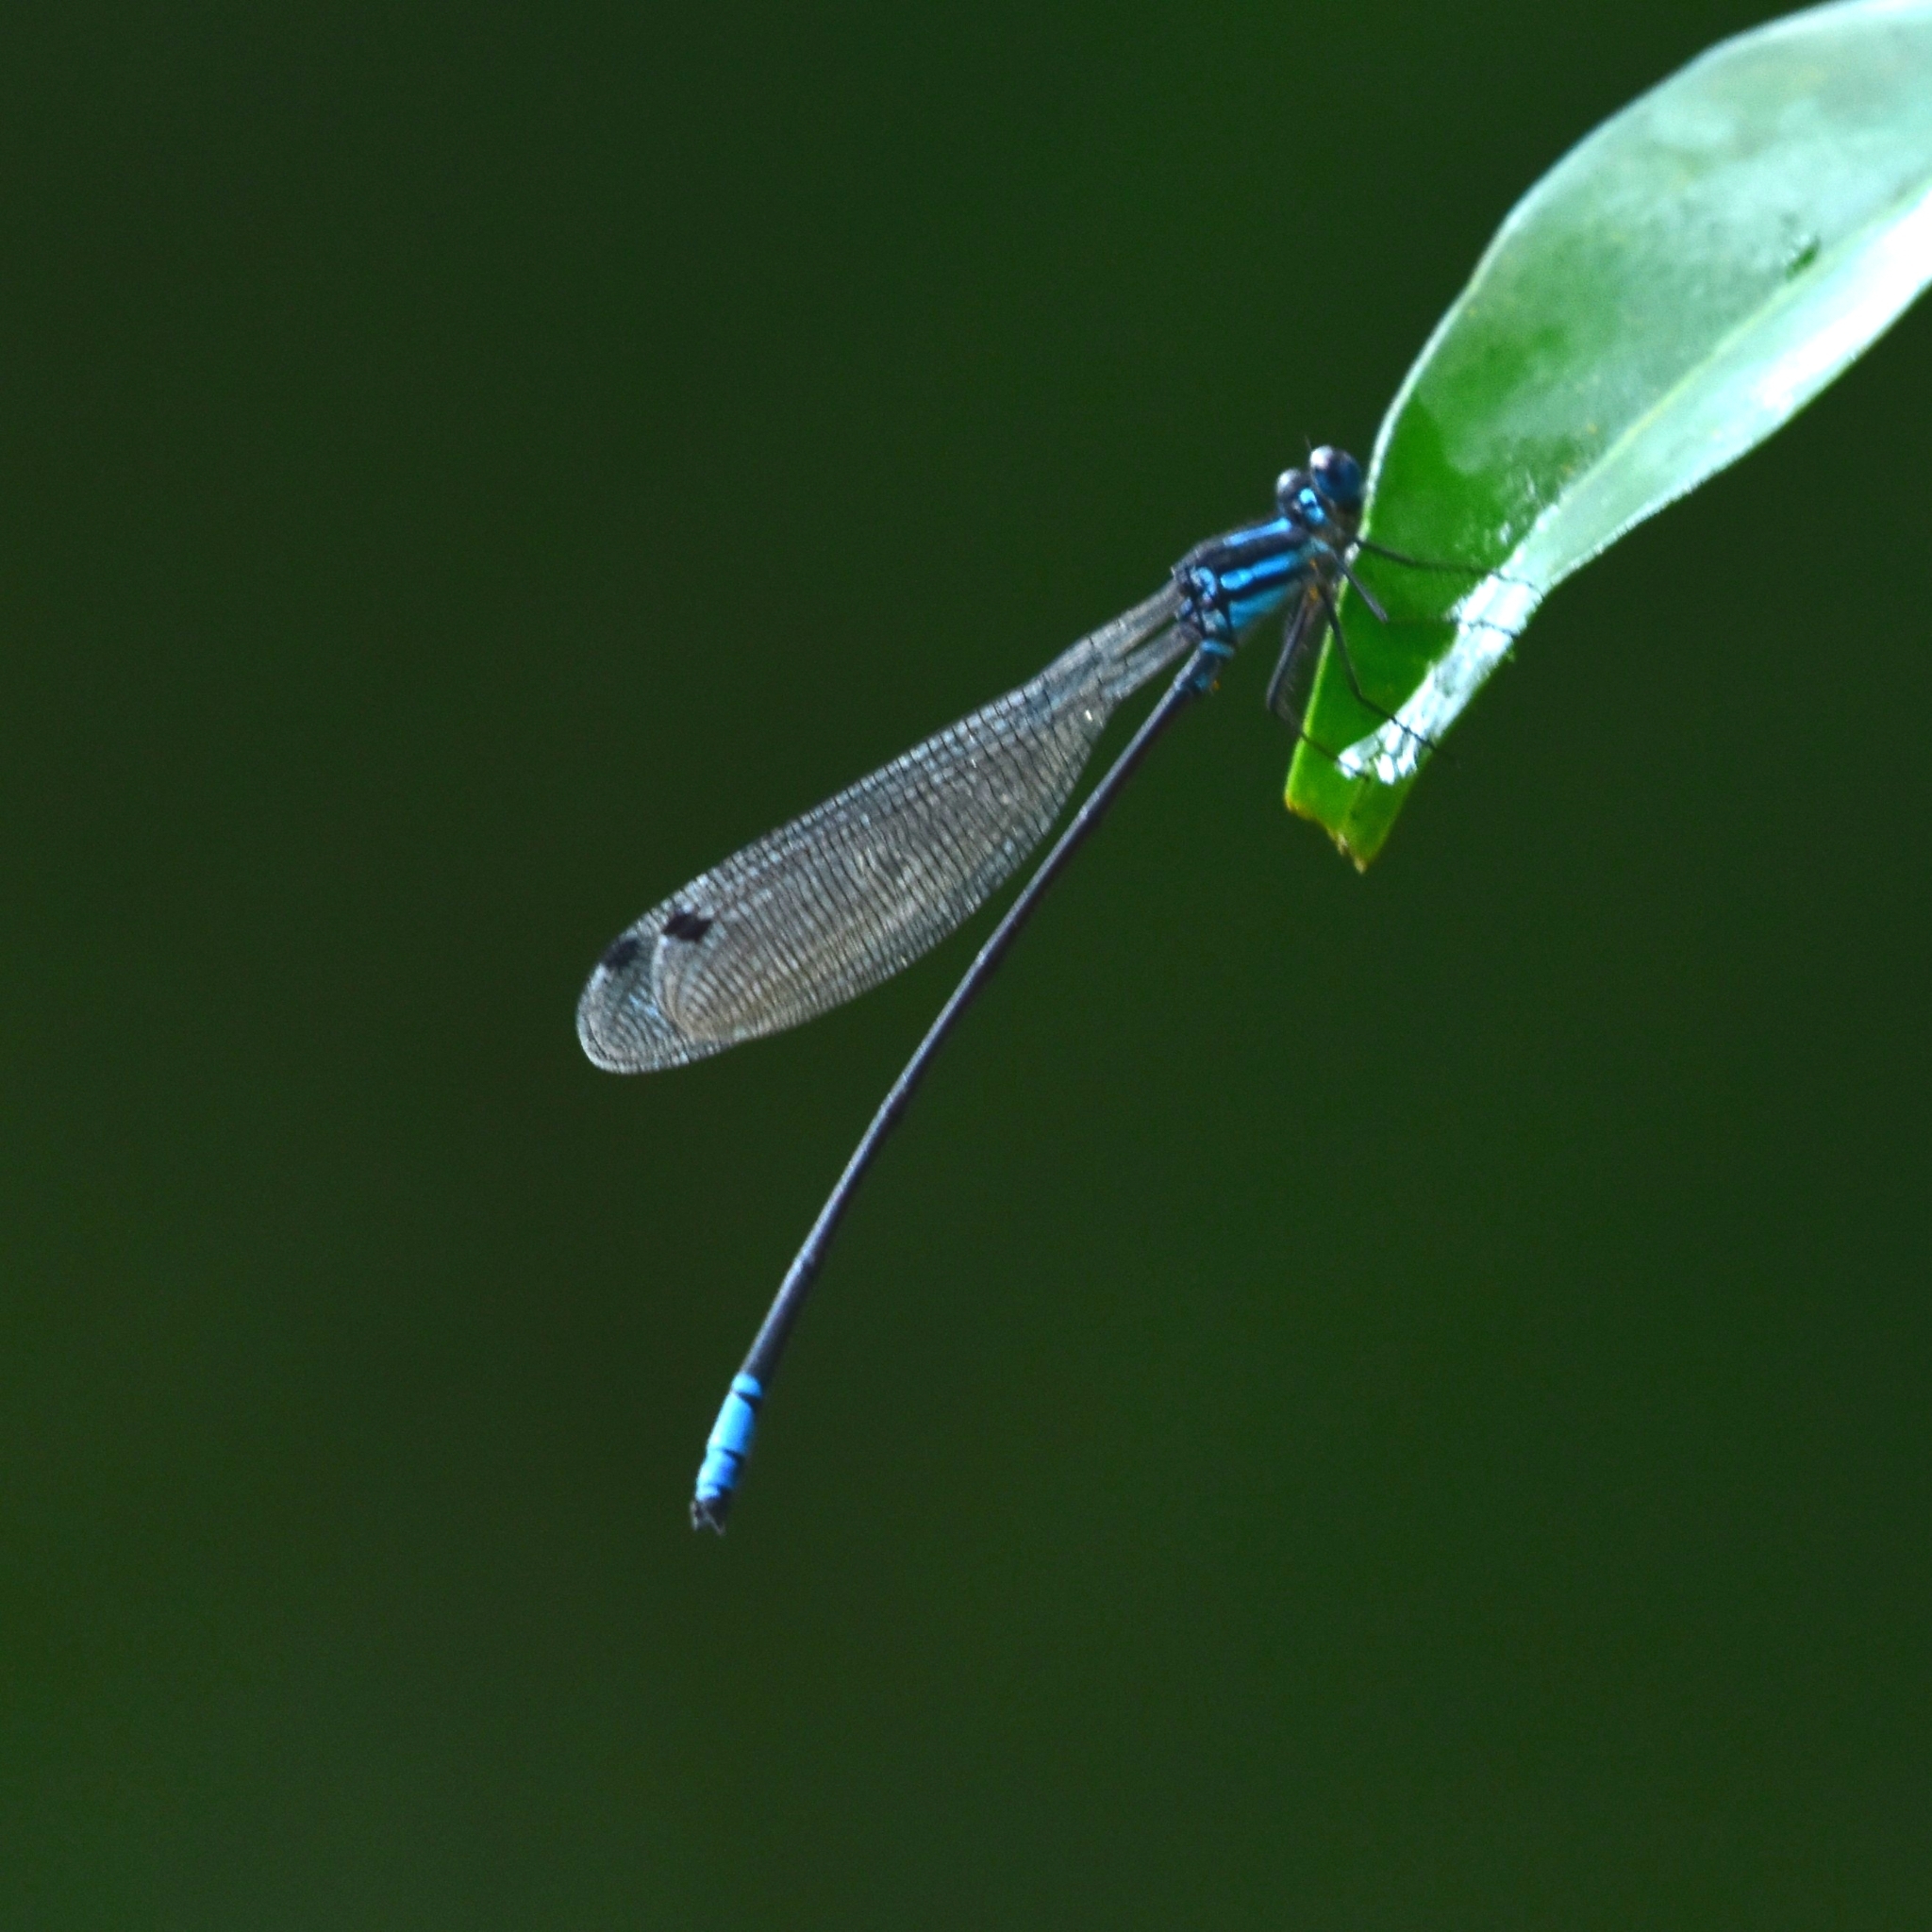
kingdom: Animalia
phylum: Arthropoda
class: Insecta
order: Odonata
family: Platycnemididae
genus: Phylloneura
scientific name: Phylloneura westermanni
